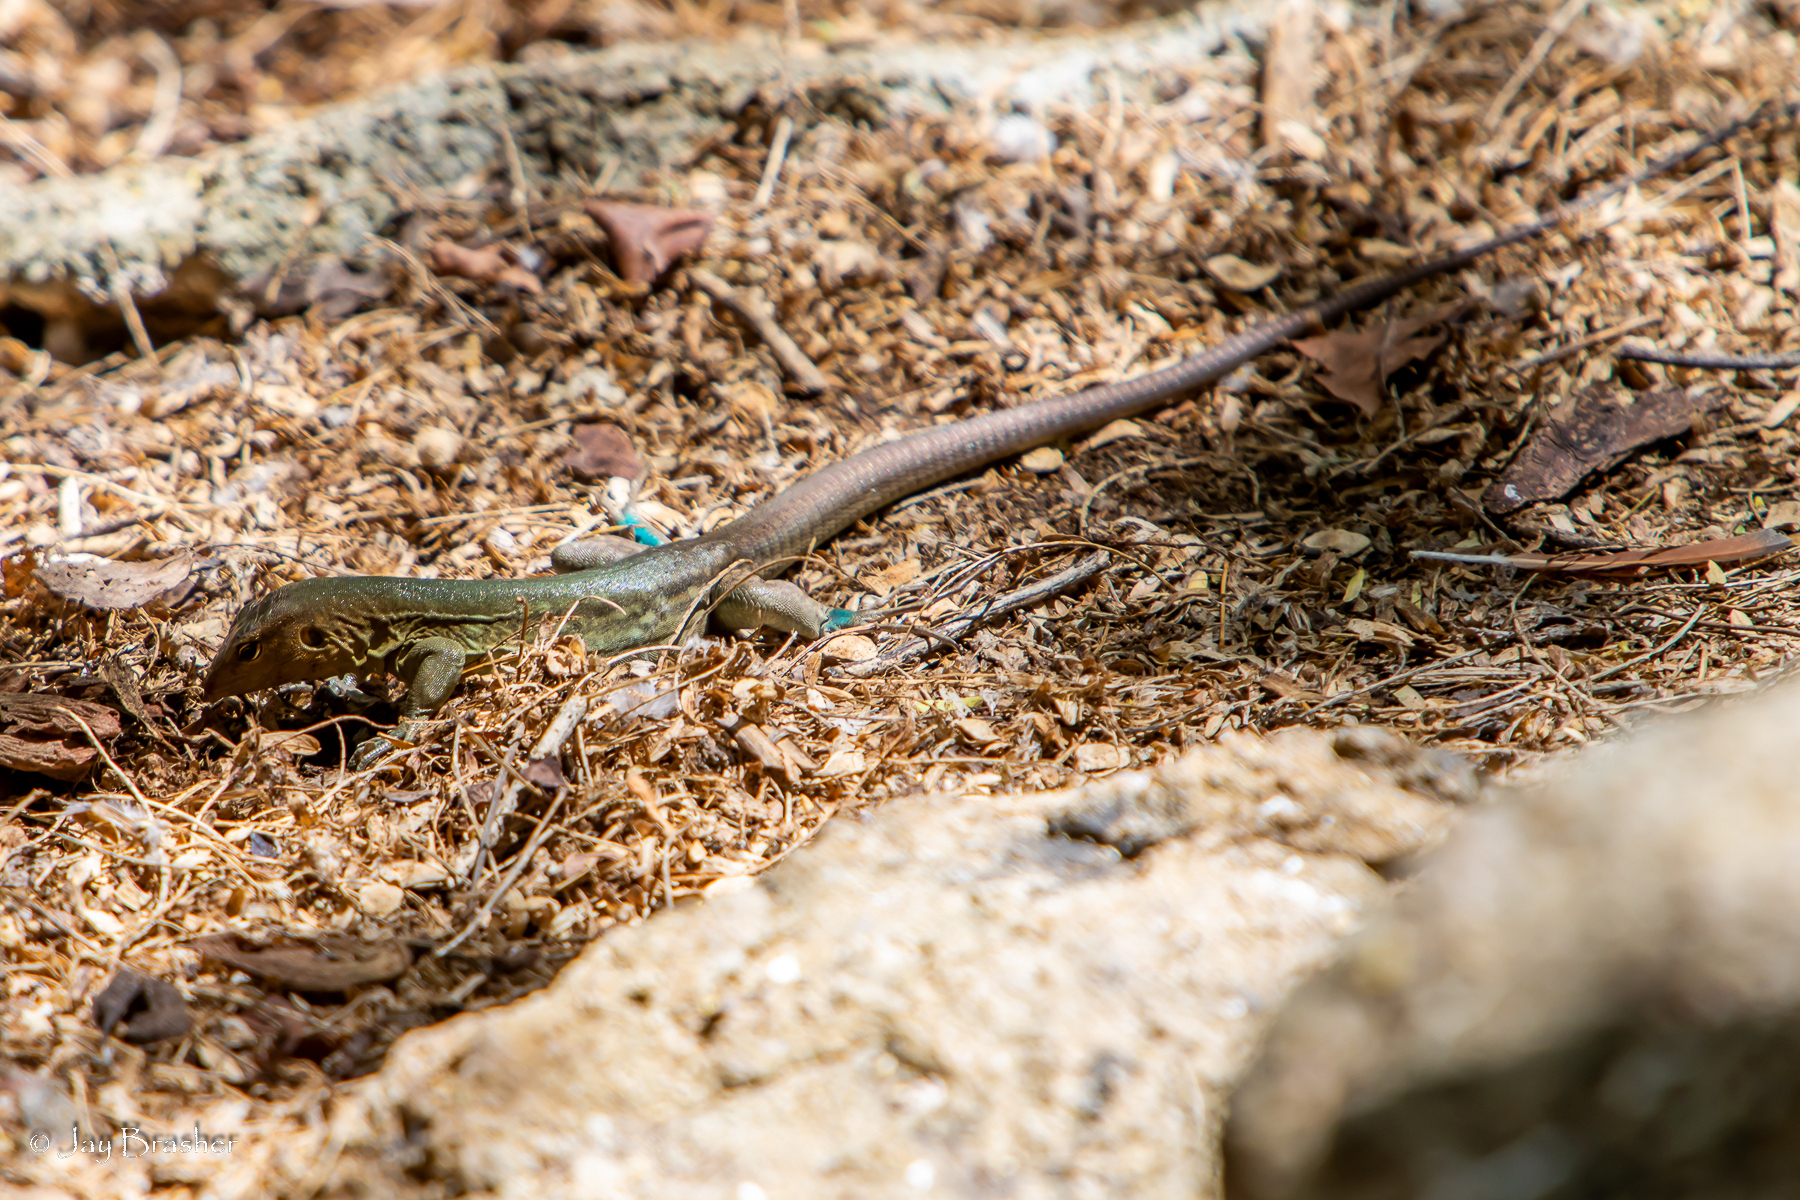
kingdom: Animalia
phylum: Chordata
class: Squamata
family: Teiidae
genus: Cnemidophorus
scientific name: Cnemidophorus ruthveni
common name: Bonaire whiptail
